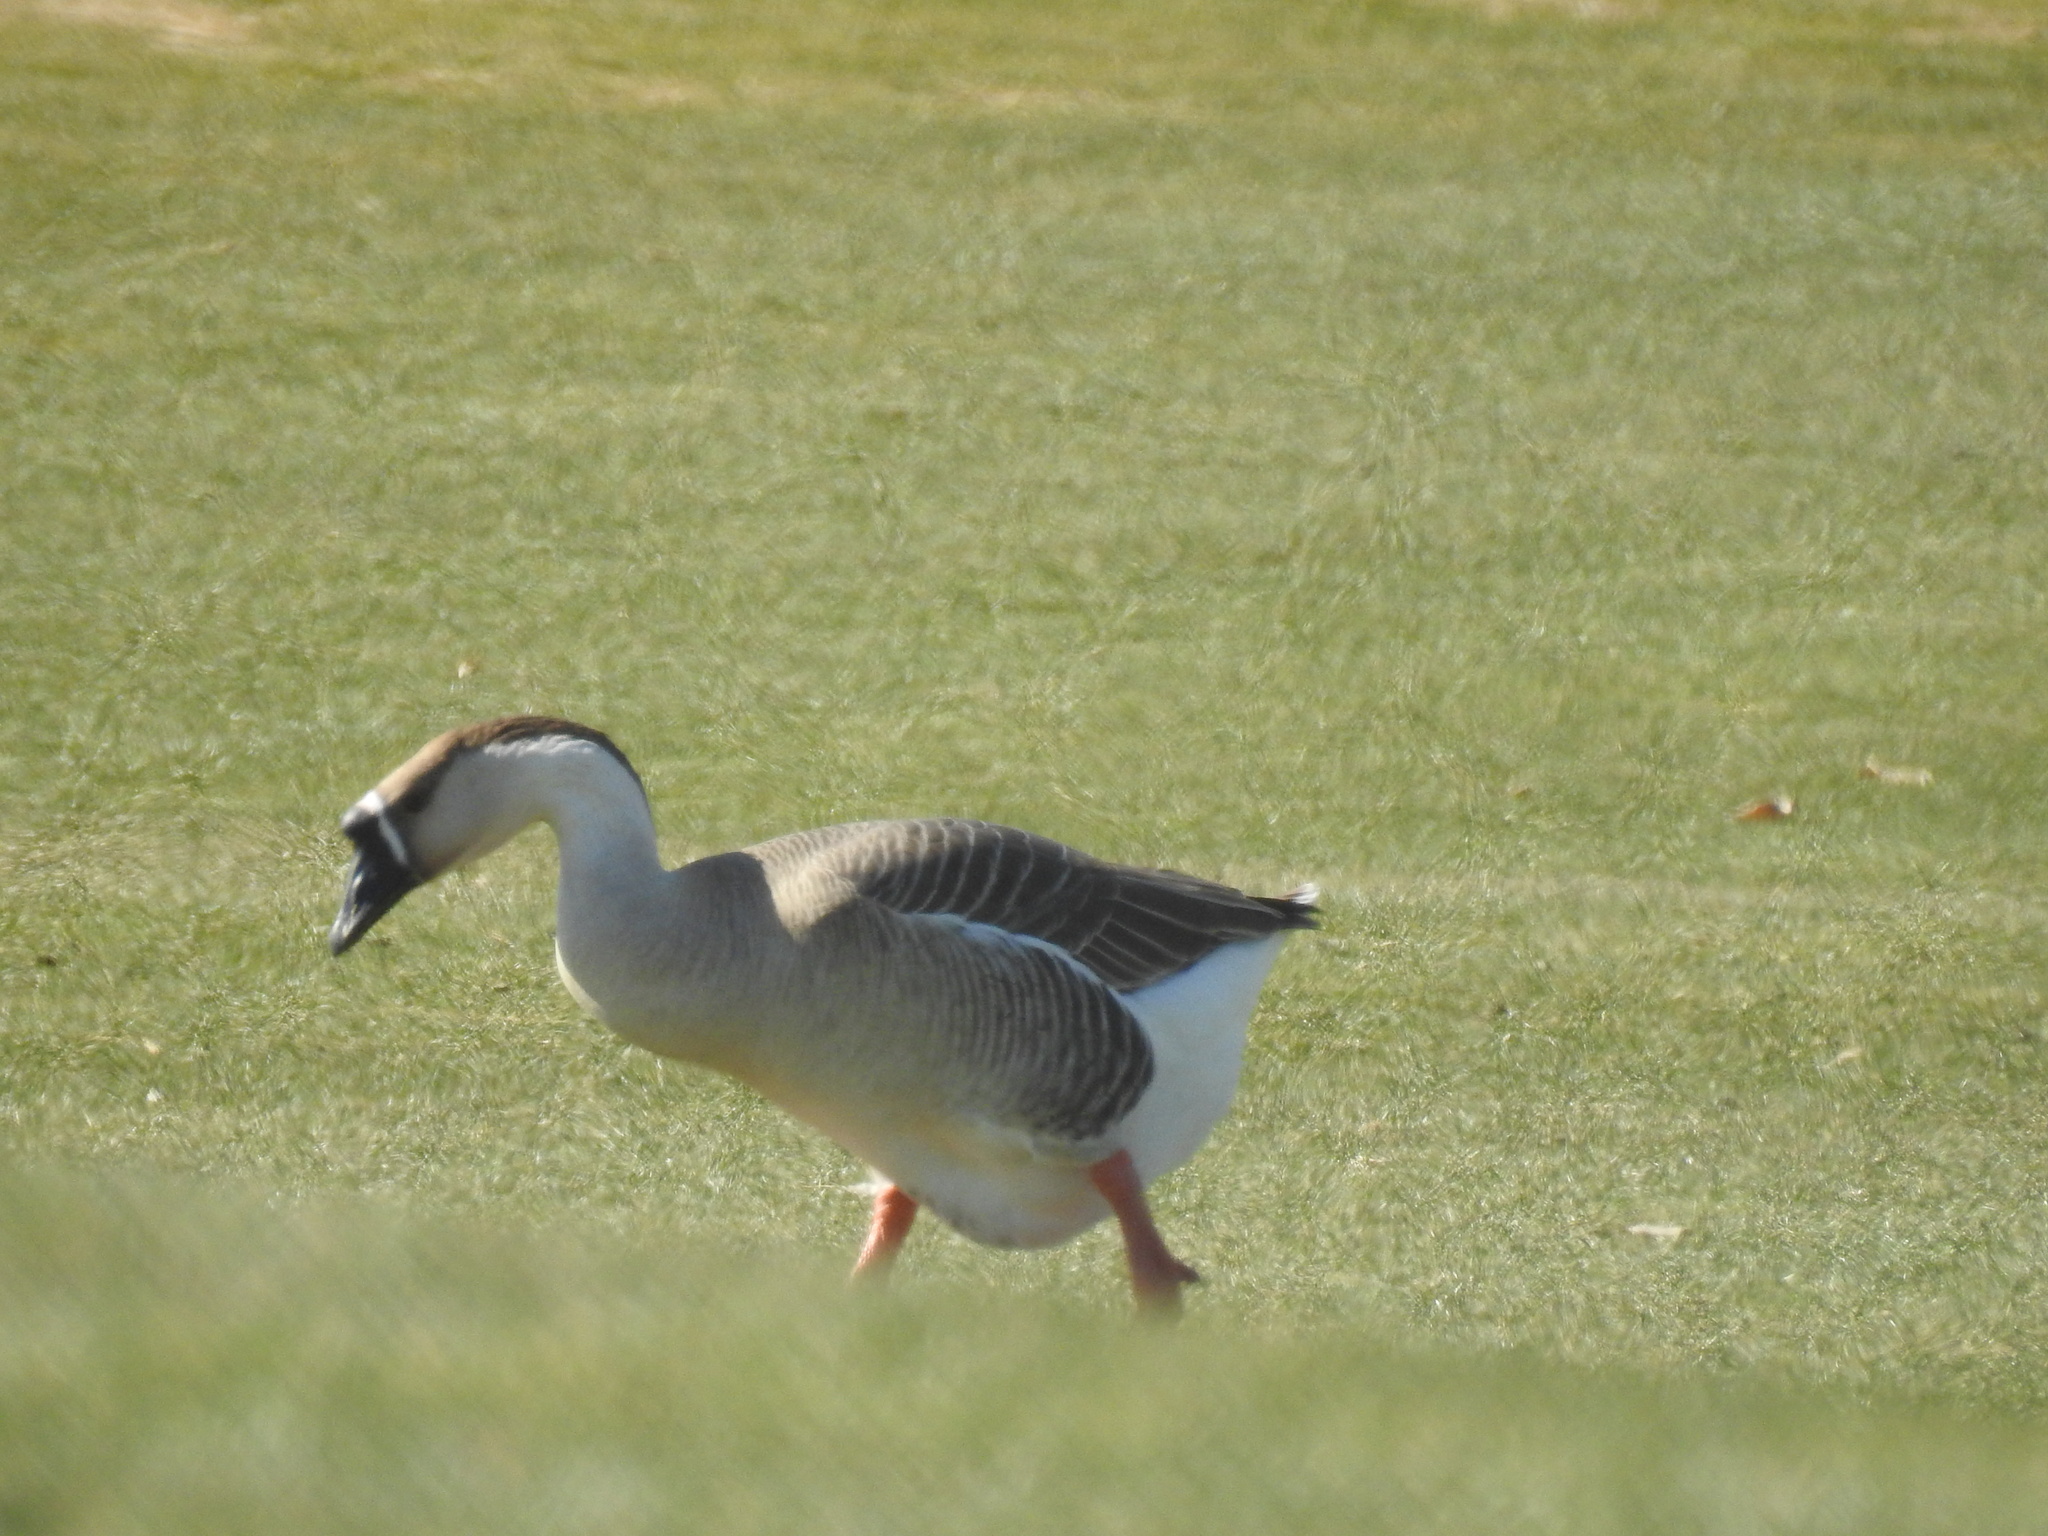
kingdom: Animalia
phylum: Chordata
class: Aves
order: Anseriformes
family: Anatidae
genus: Anser
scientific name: Anser cygnoides
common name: Swan goose
